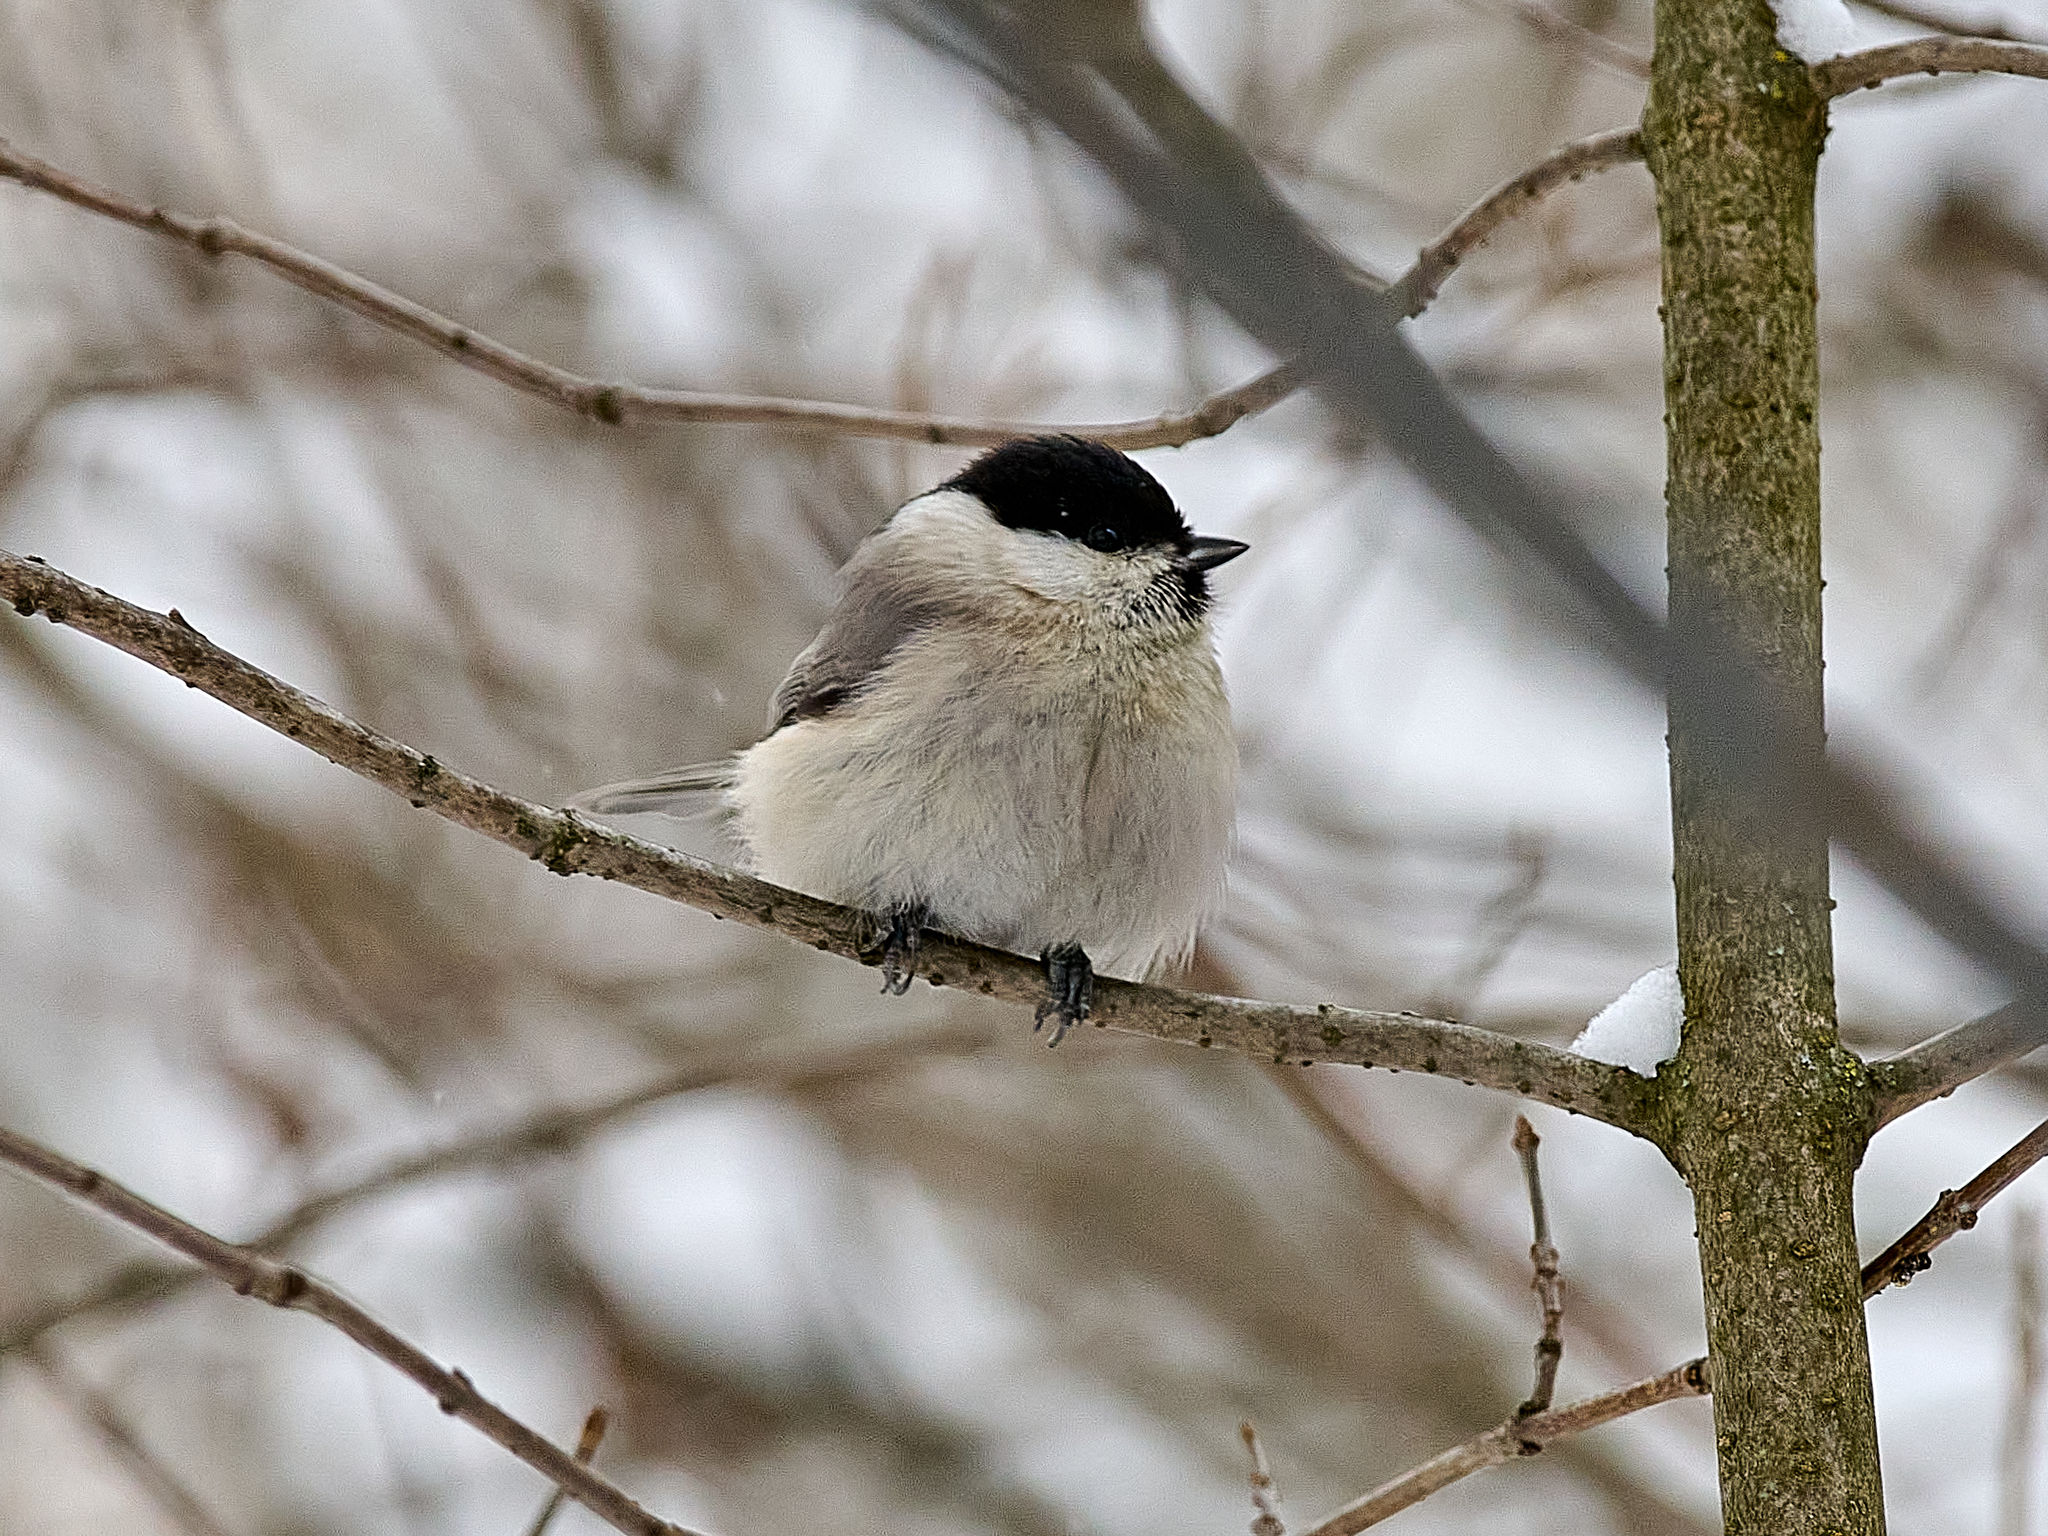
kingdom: Animalia
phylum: Chordata
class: Aves
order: Passeriformes
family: Paridae
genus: Poecile
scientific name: Poecile palustris
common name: Marsh tit
